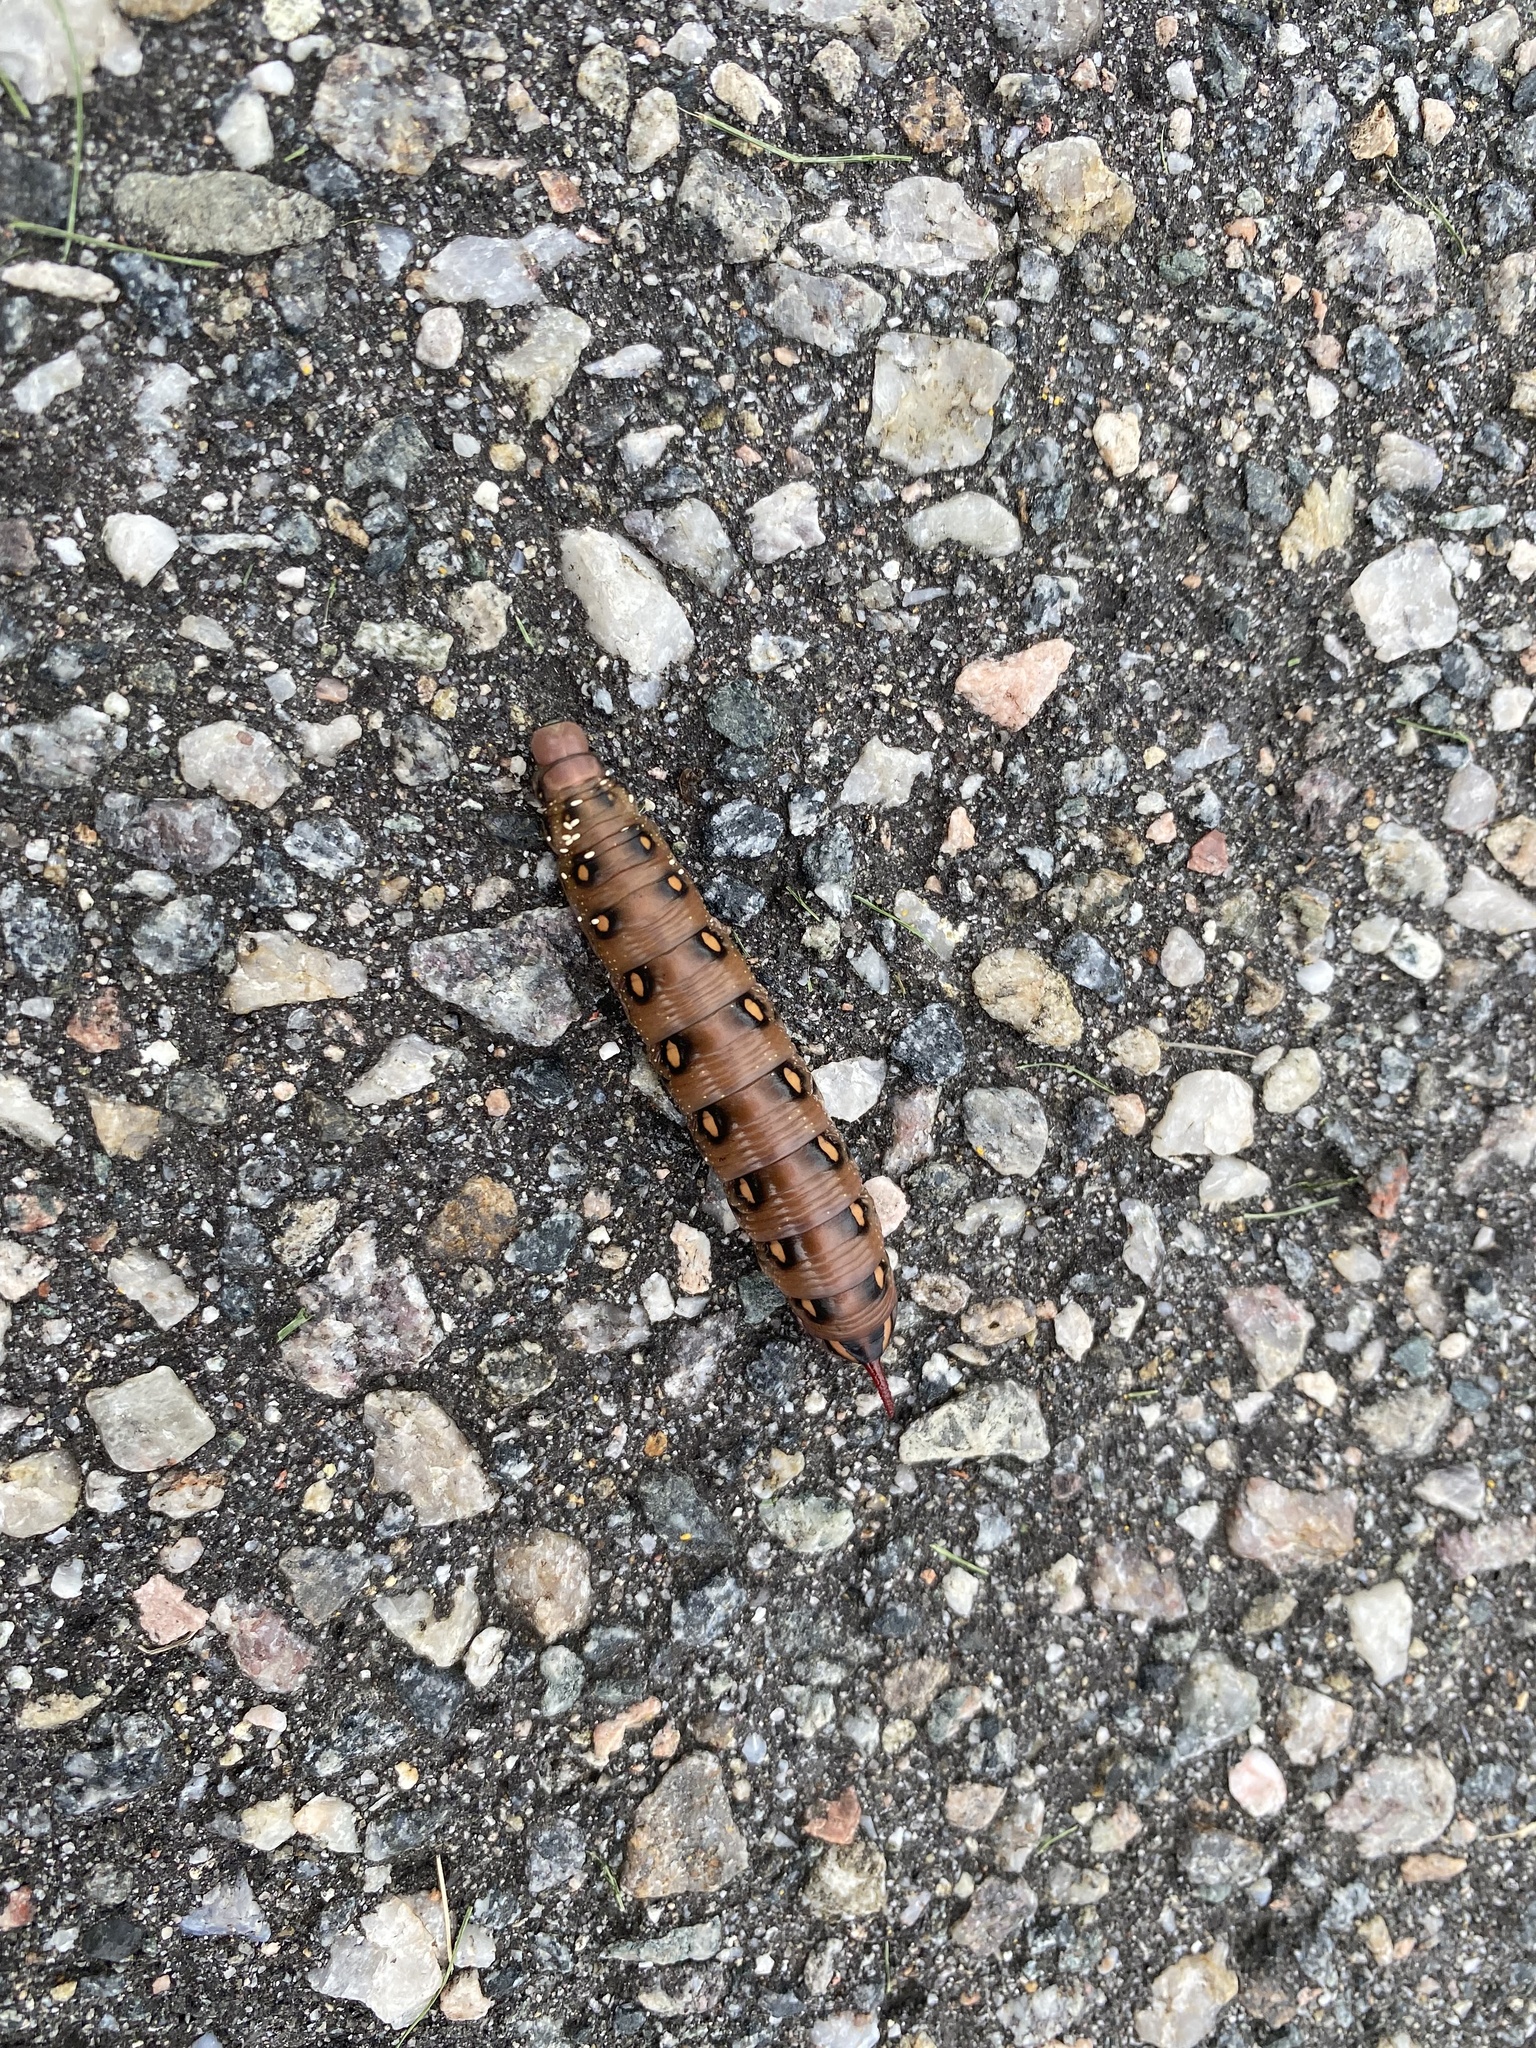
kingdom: Animalia
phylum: Arthropoda
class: Insecta
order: Lepidoptera
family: Sphingidae
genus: Hyles
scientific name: Hyles gallii
